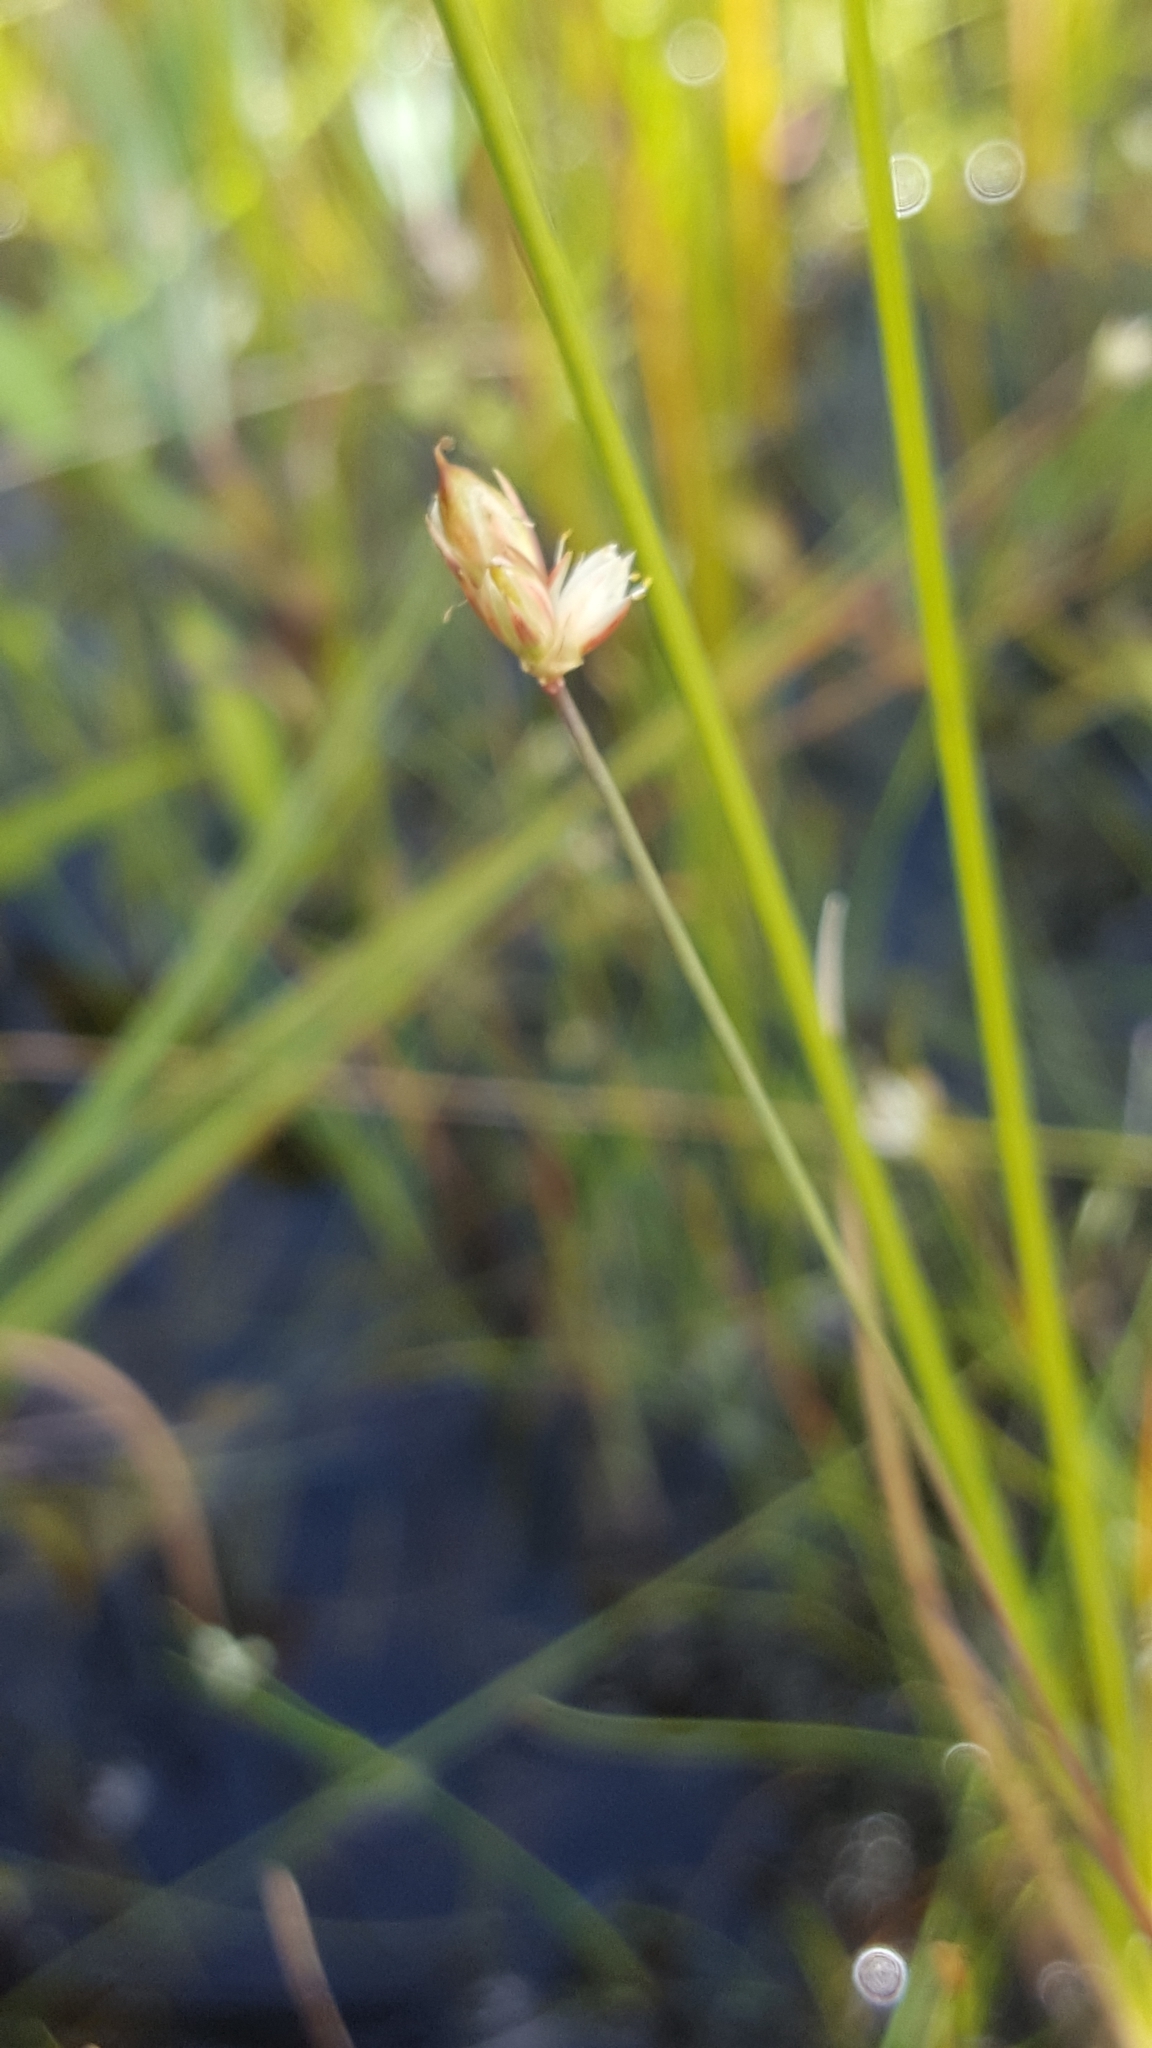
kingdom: Plantae
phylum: Tracheophyta
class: Liliopsida
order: Poales
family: Juncaceae
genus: Juncus
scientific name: Juncus stygius
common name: Bog rush
